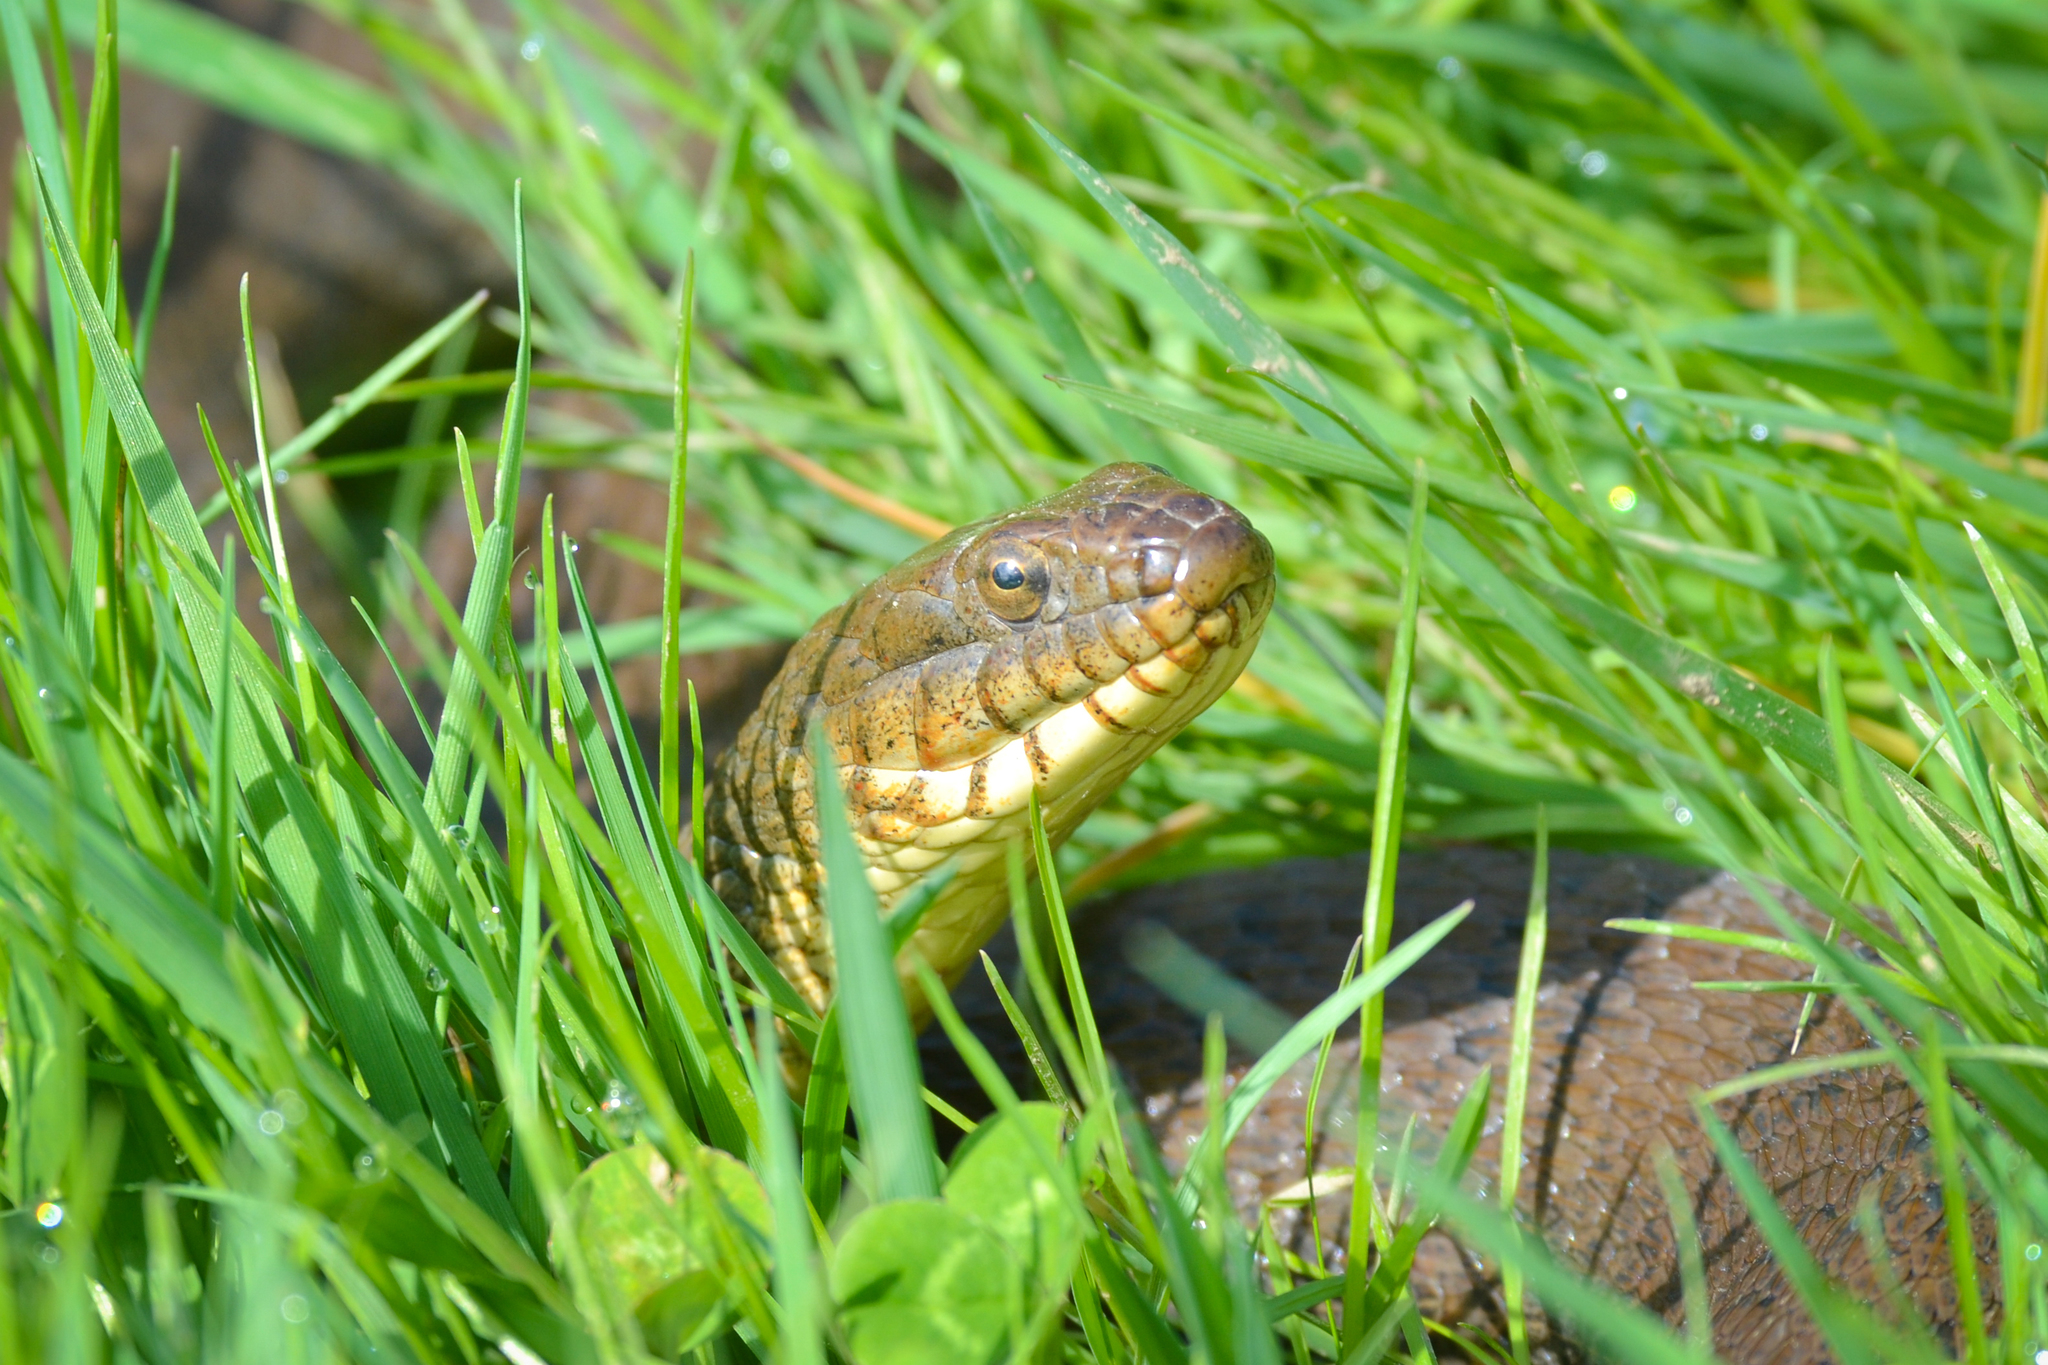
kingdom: Animalia
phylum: Chordata
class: Squamata
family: Colubridae
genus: Nerodia
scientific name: Nerodia sipedon
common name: Northern water snake
